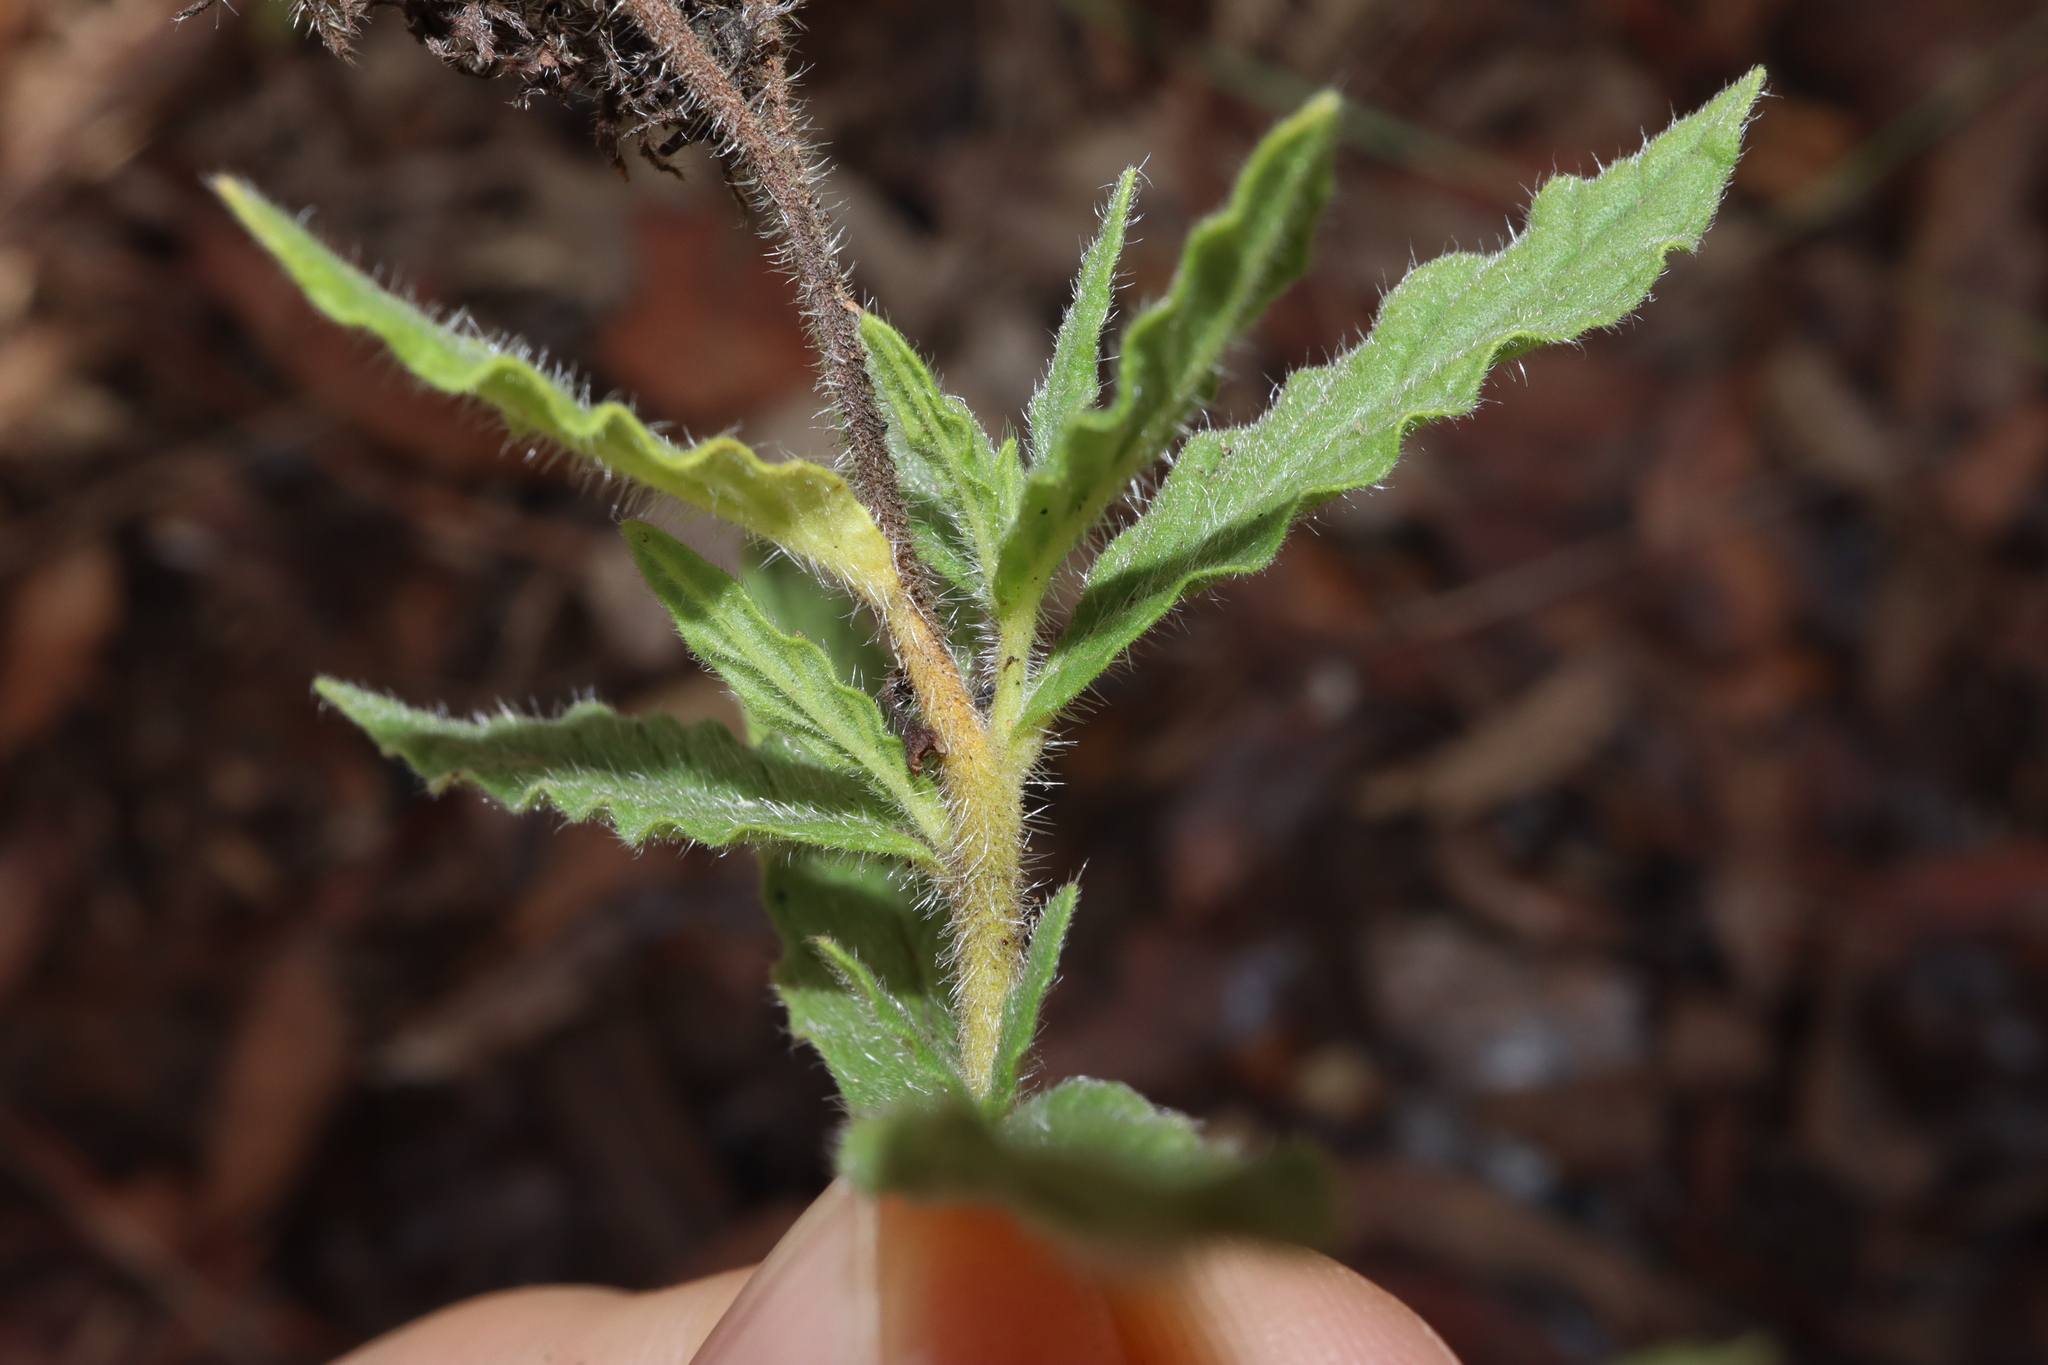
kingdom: Plantae
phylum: Tracheophyta
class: Magnoliopsida
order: Boraginales
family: Heliotropiaceae
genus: Heliotropium
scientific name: Heliotropium amplexicaule
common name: Clasping heliotrope
